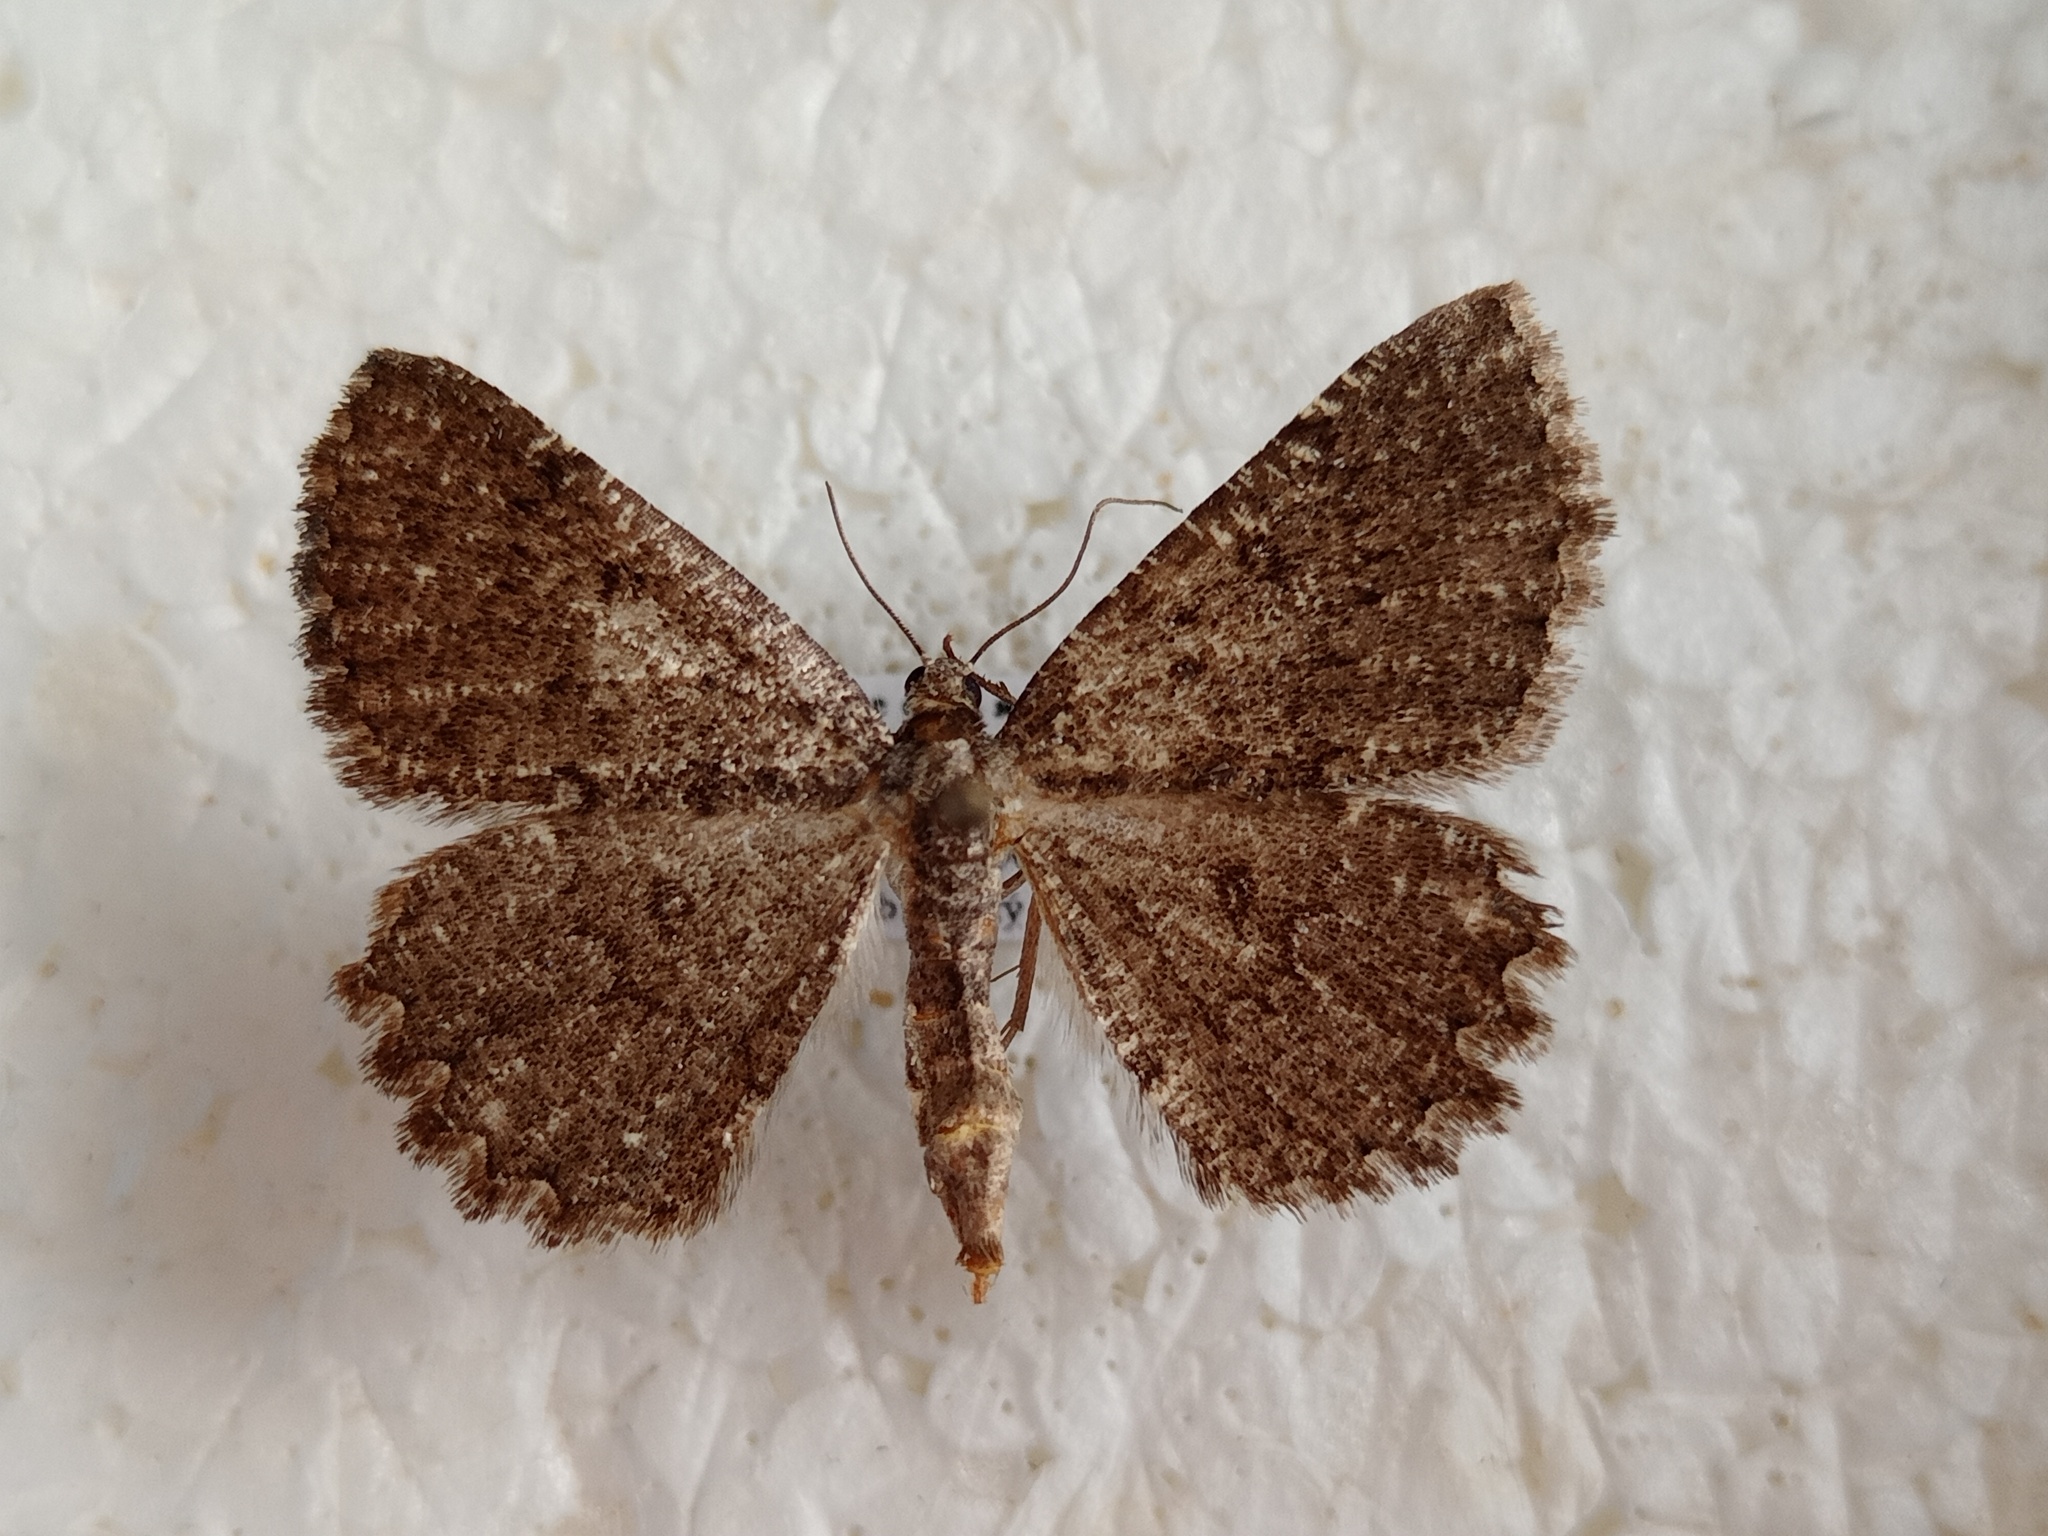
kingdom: Animalia
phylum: Arthropoda
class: Insecta
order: Lepidoptera
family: Geometridae
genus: Charissa
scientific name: Charissa obscurata
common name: Annulet
